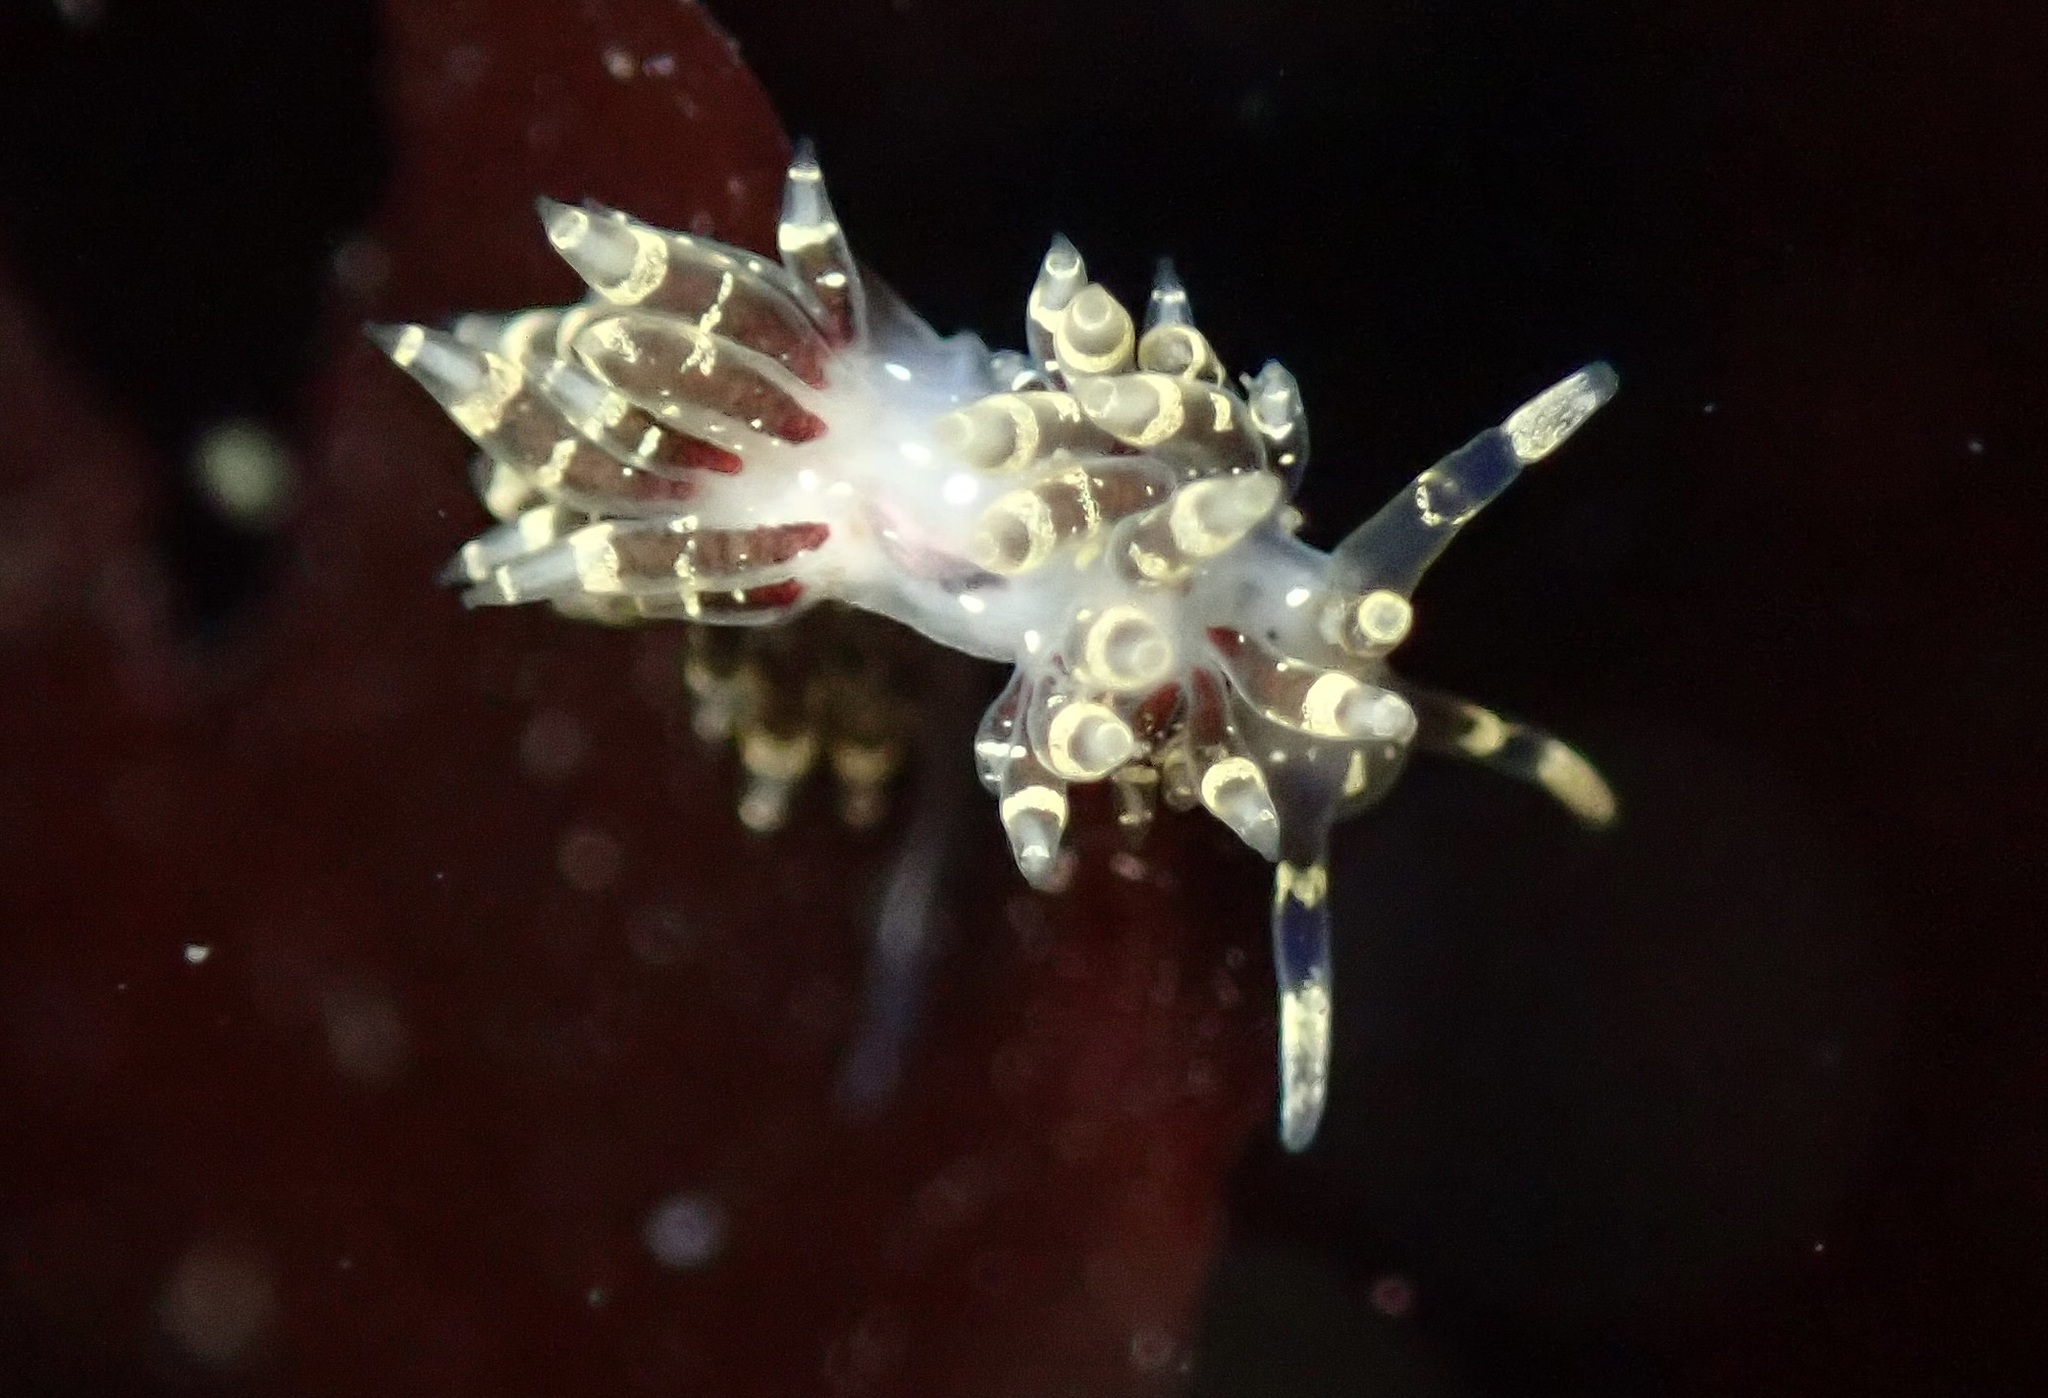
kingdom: Animalia
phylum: Mollusca
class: Gastropoda
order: Nudibranchia
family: Abronicidae
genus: Abronica
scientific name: Abronica abronia
